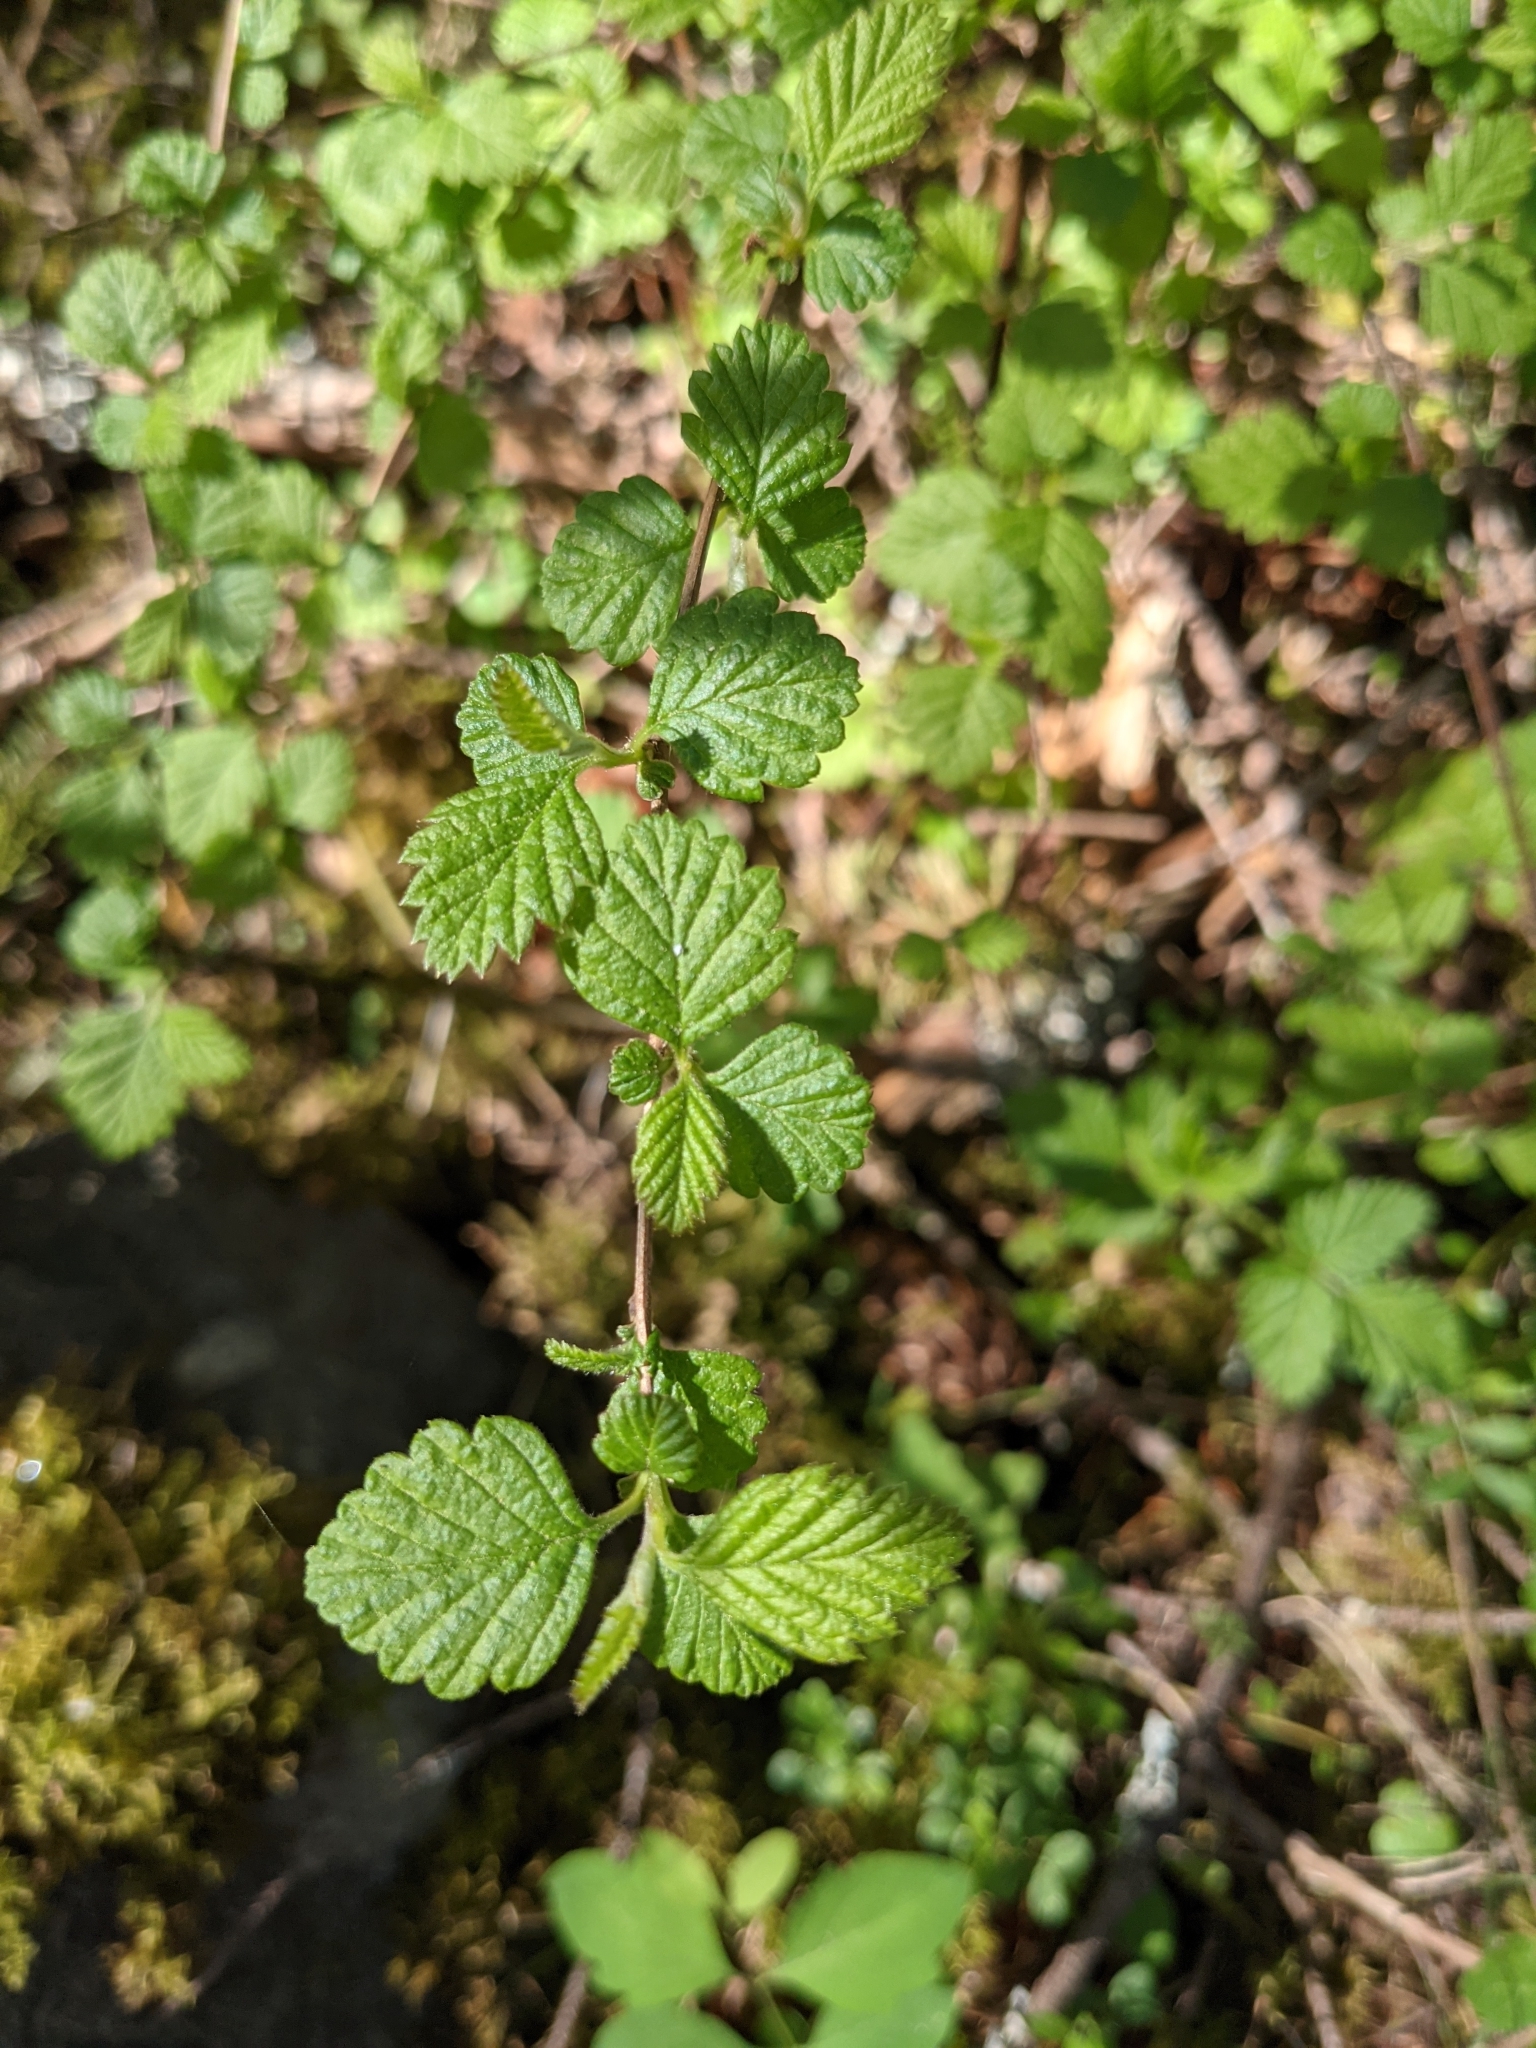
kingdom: Plantae
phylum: Tracheophyta
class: Magnoliopsida
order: Rosales
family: Rosaceae
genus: Holodiscus
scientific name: Holodiscus discolor
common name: Oceanspray
